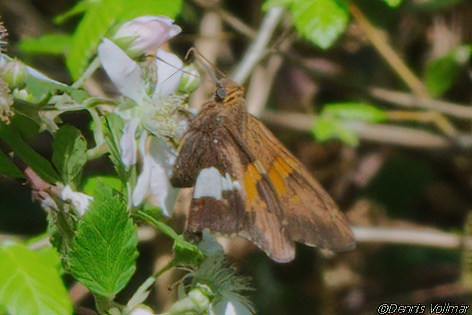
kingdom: Animalia
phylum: Arthropoda
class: Insecta
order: Lepidoptera
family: Hesperiidae
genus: Epargyreus
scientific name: Epargyreus clarus
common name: Silver-spotted skipper
